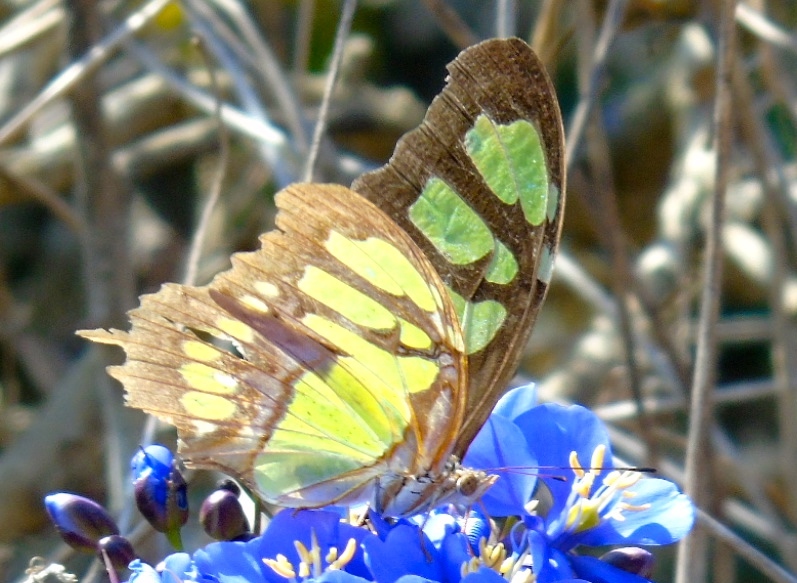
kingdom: Animalia
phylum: Arthropoda
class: Insecta
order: Lepidoptera
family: Nymphalidae
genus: Siproeta
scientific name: Siproeta stelenes
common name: Malachite
